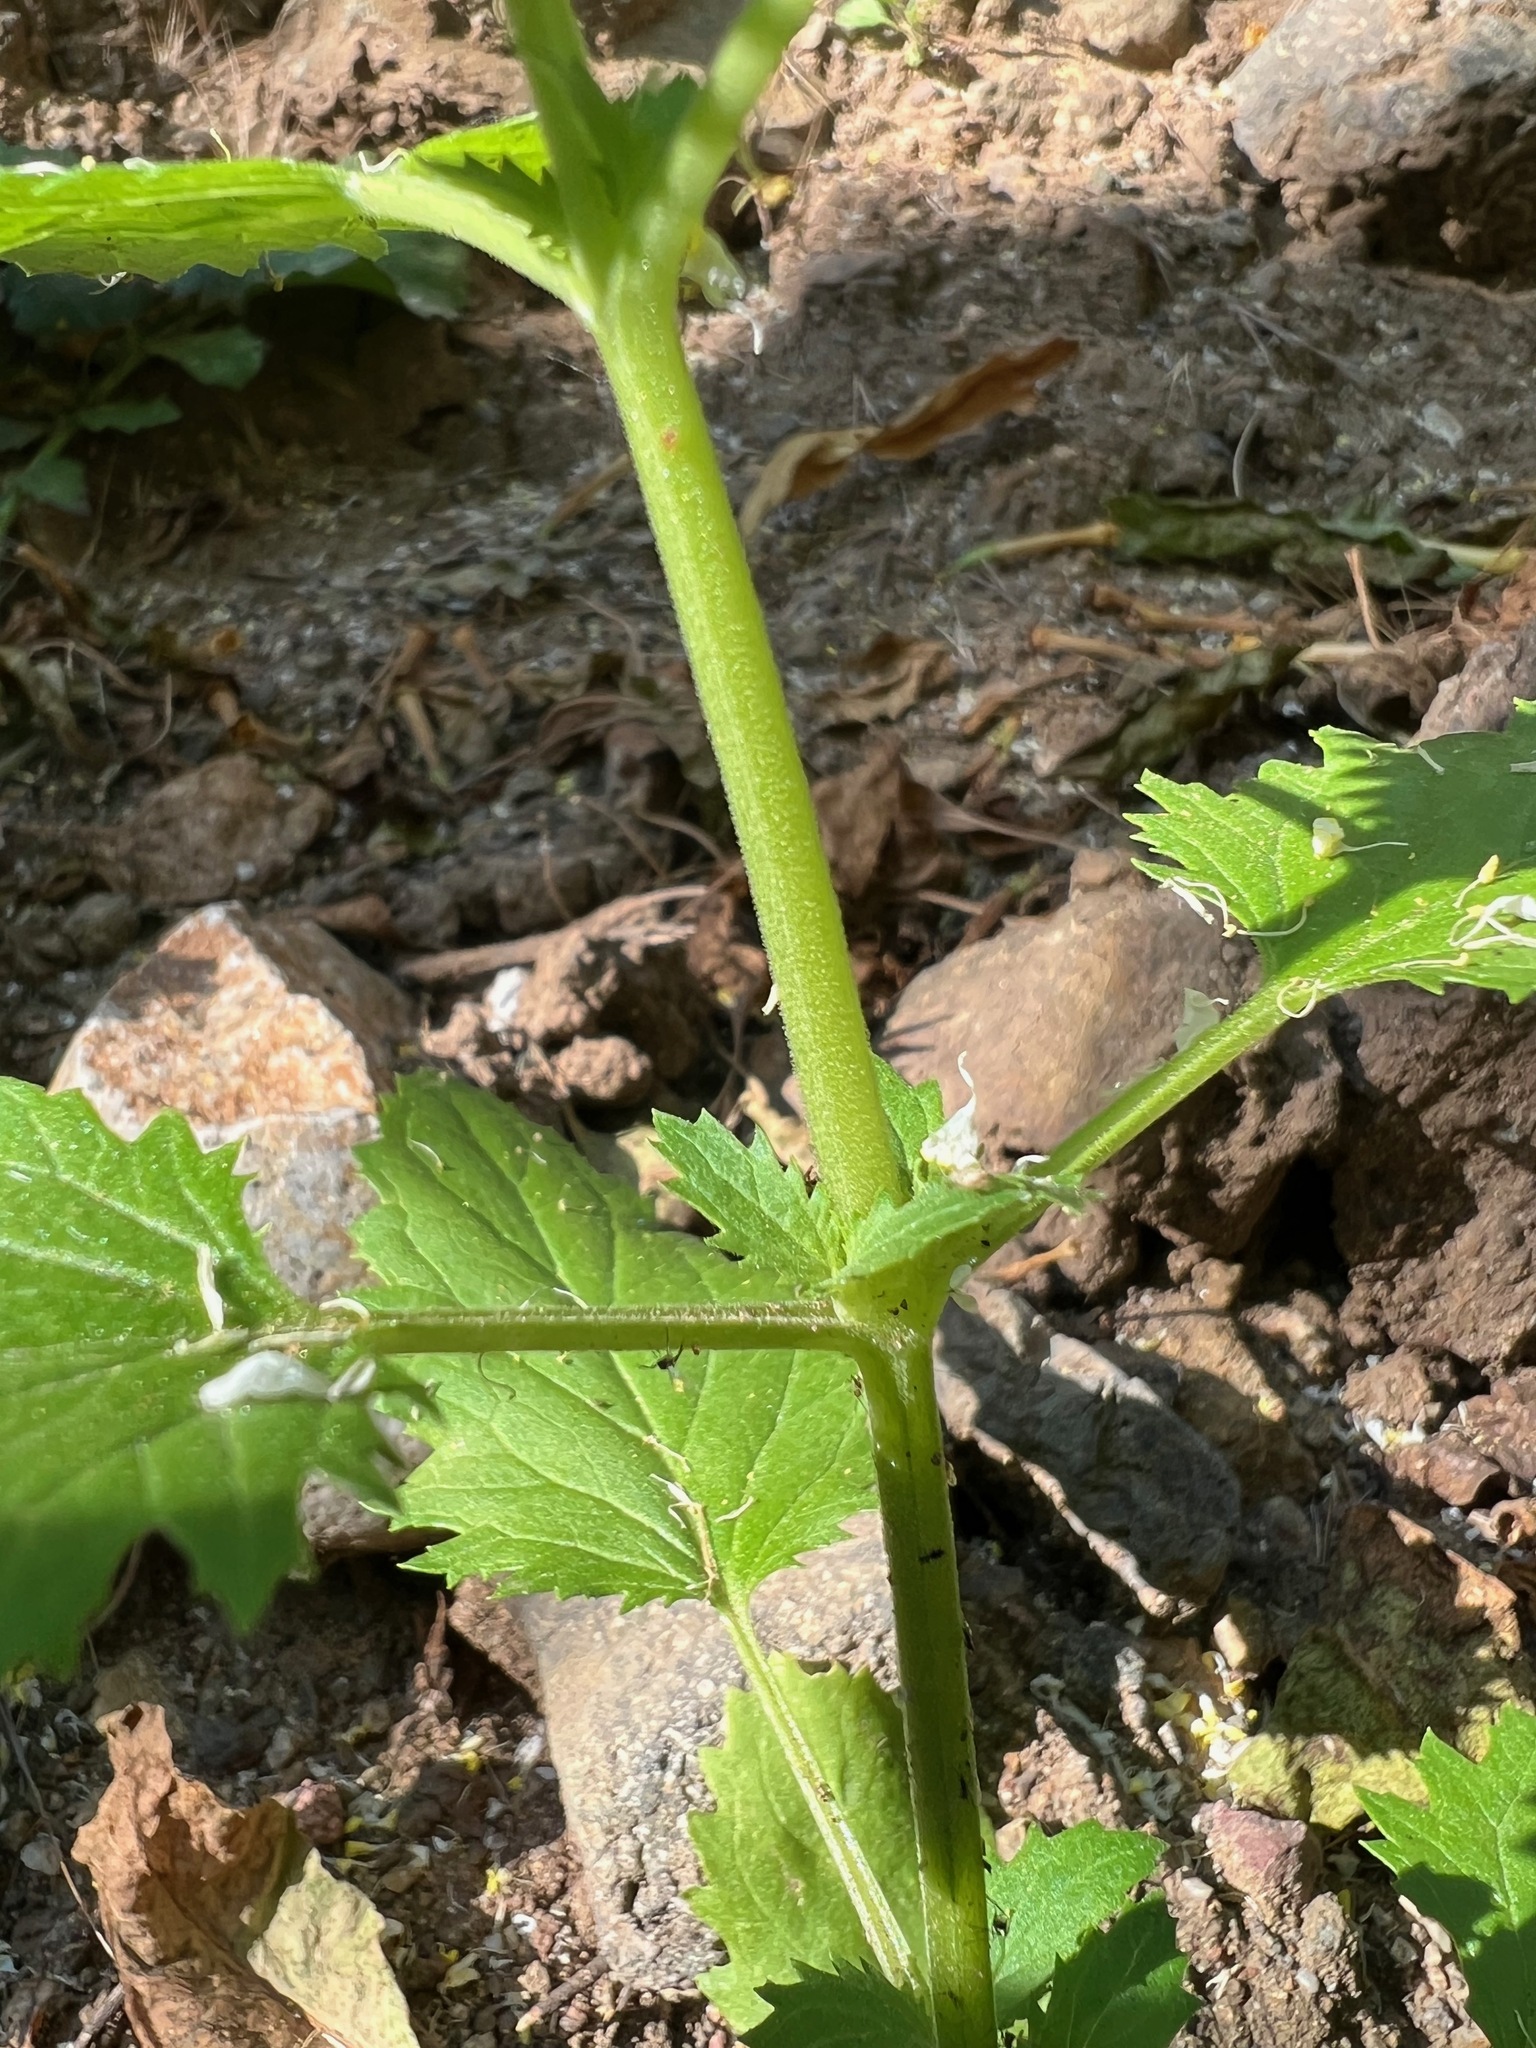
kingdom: Plantae
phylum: Tracheophyta
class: Magnoliopsida
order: Lamiales
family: Scrophulariaceae
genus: Scrophularia
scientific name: Scrophularia californica
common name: California figwort
